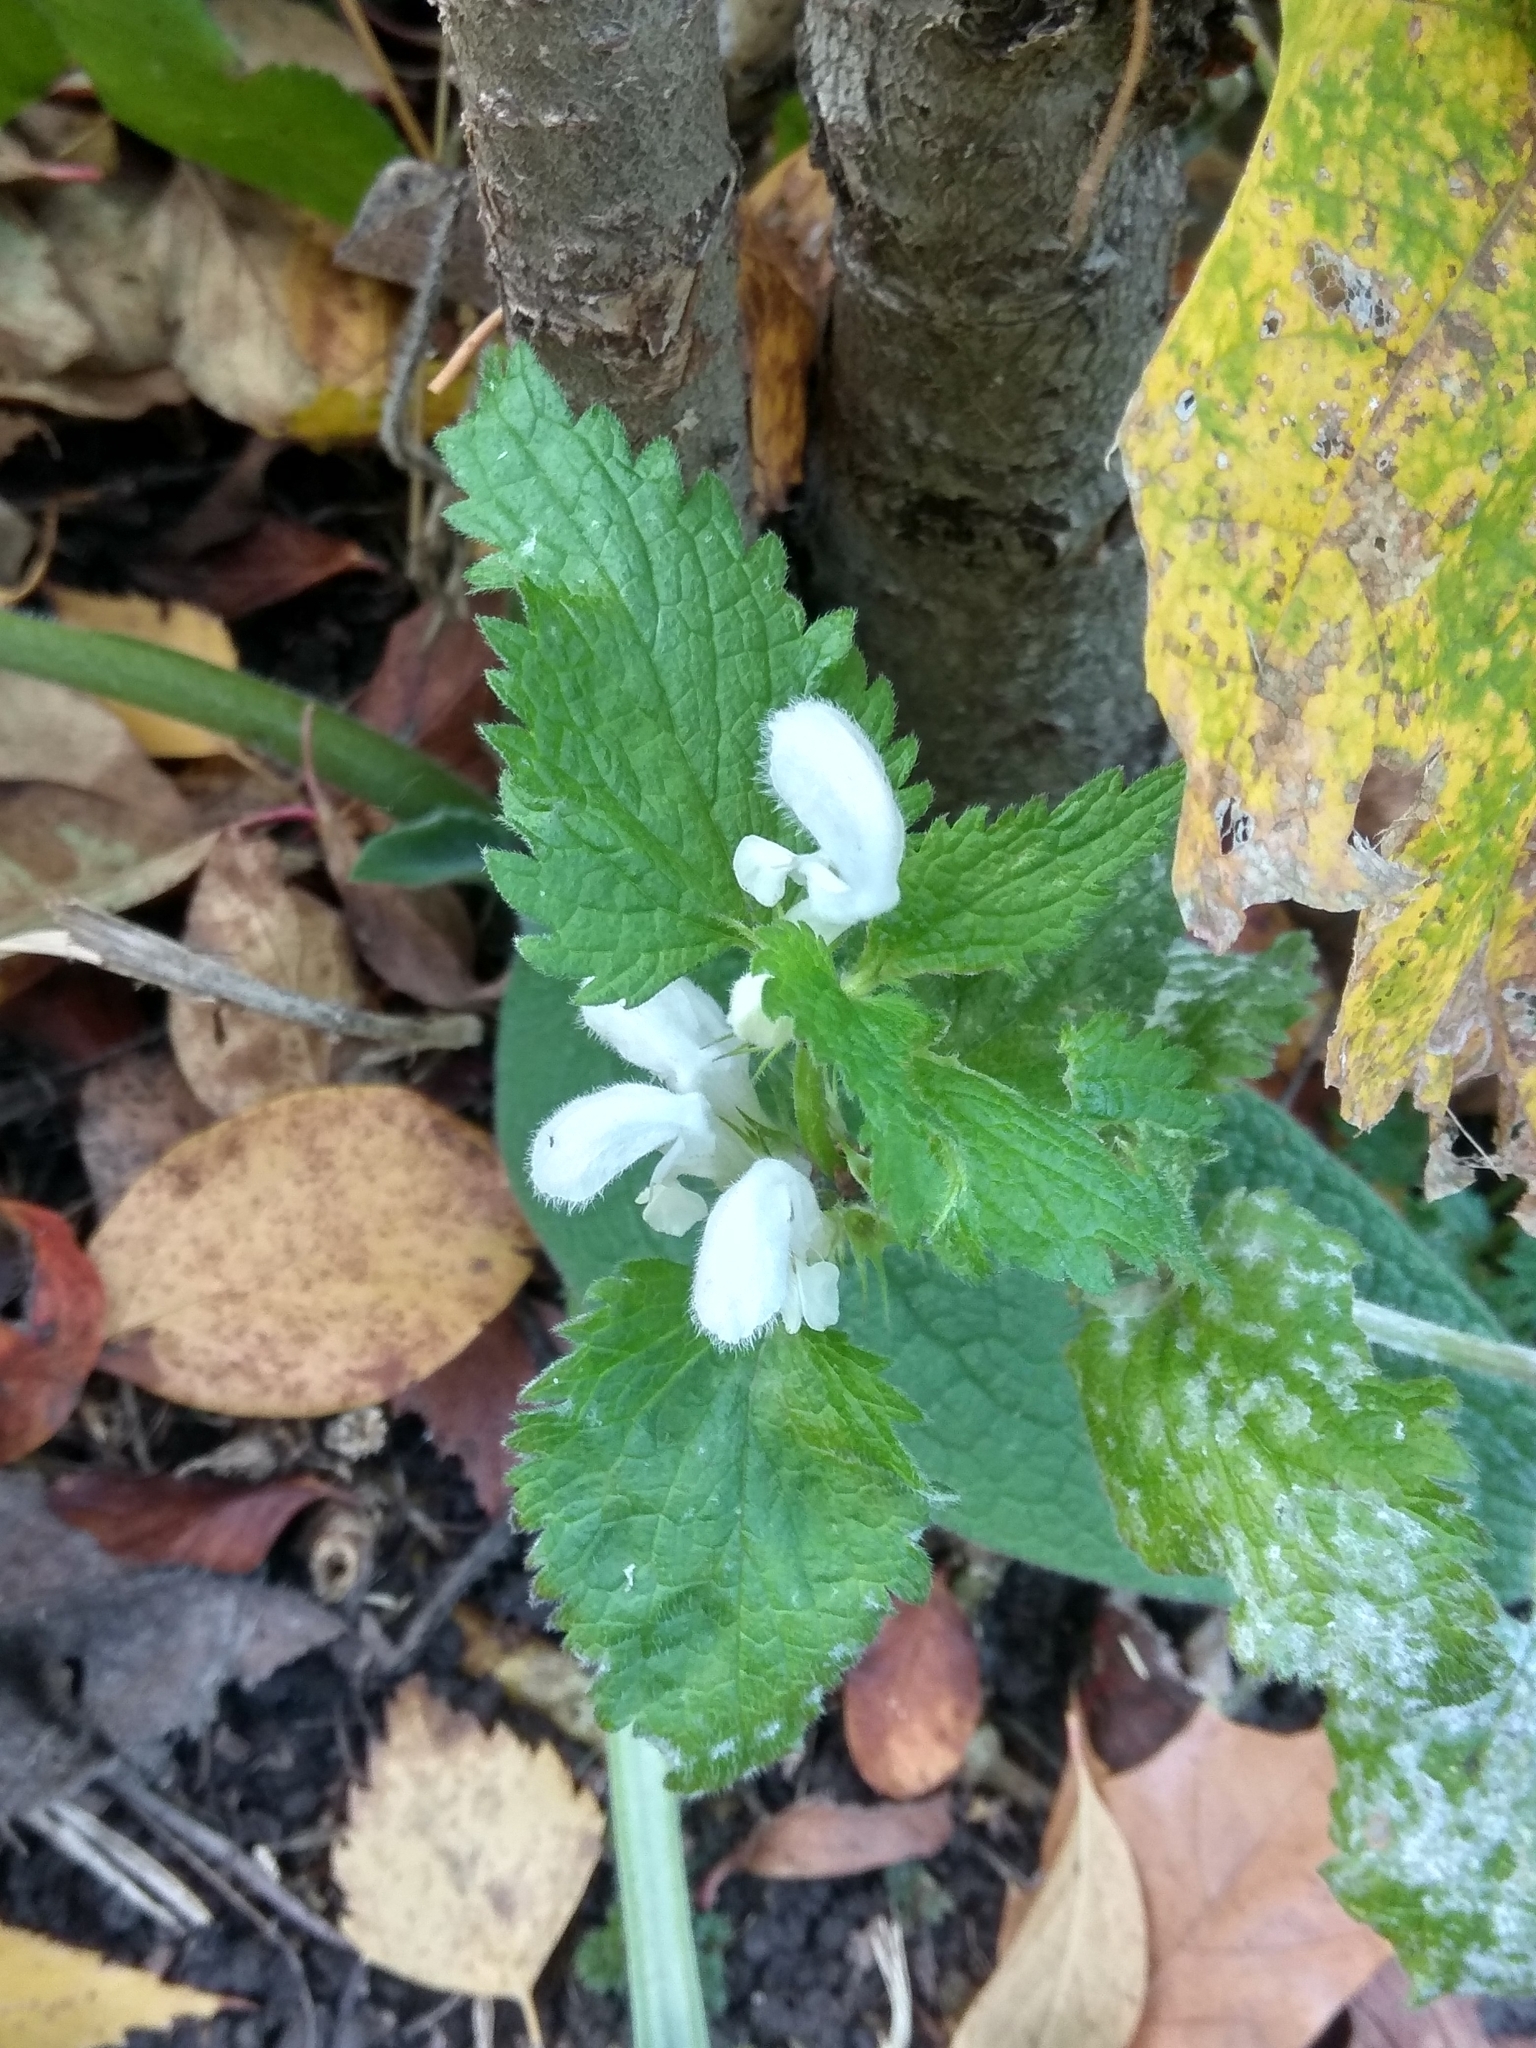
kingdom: Plantae
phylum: Tracheophyta
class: Magnoliopsida
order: Lamiales
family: Lamiaceae
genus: Lamium
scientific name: Lamium album
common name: White dead-nettle
